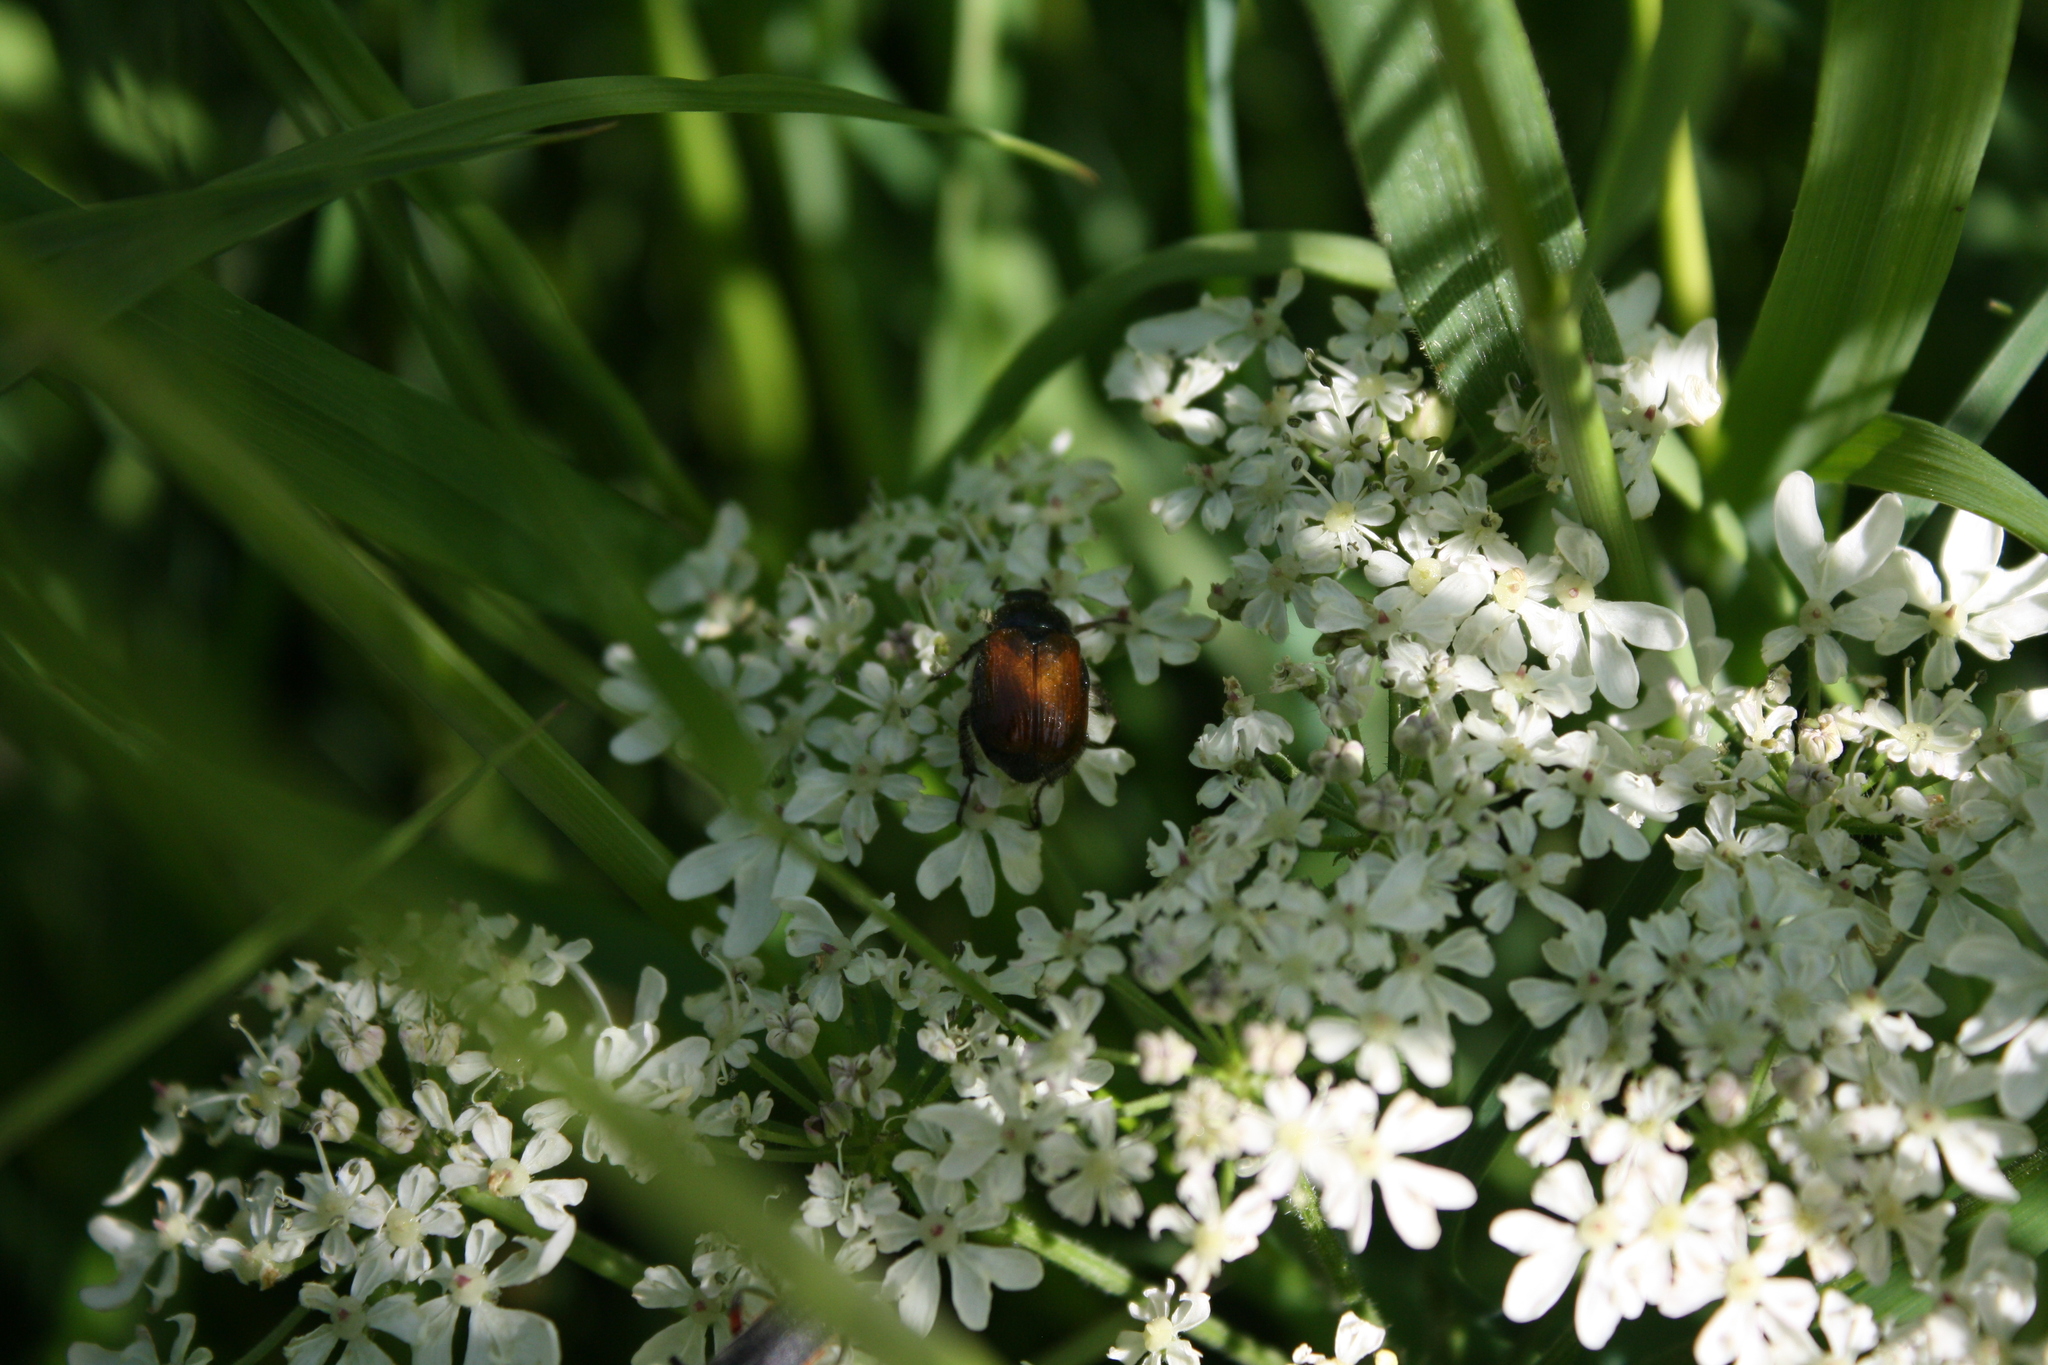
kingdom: Animalia
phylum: Arthropoda
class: Insecta
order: Coleoptera
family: Scarabaeidae
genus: Phyllopertha
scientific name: Phyllopertha horticola
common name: Garden chafer
